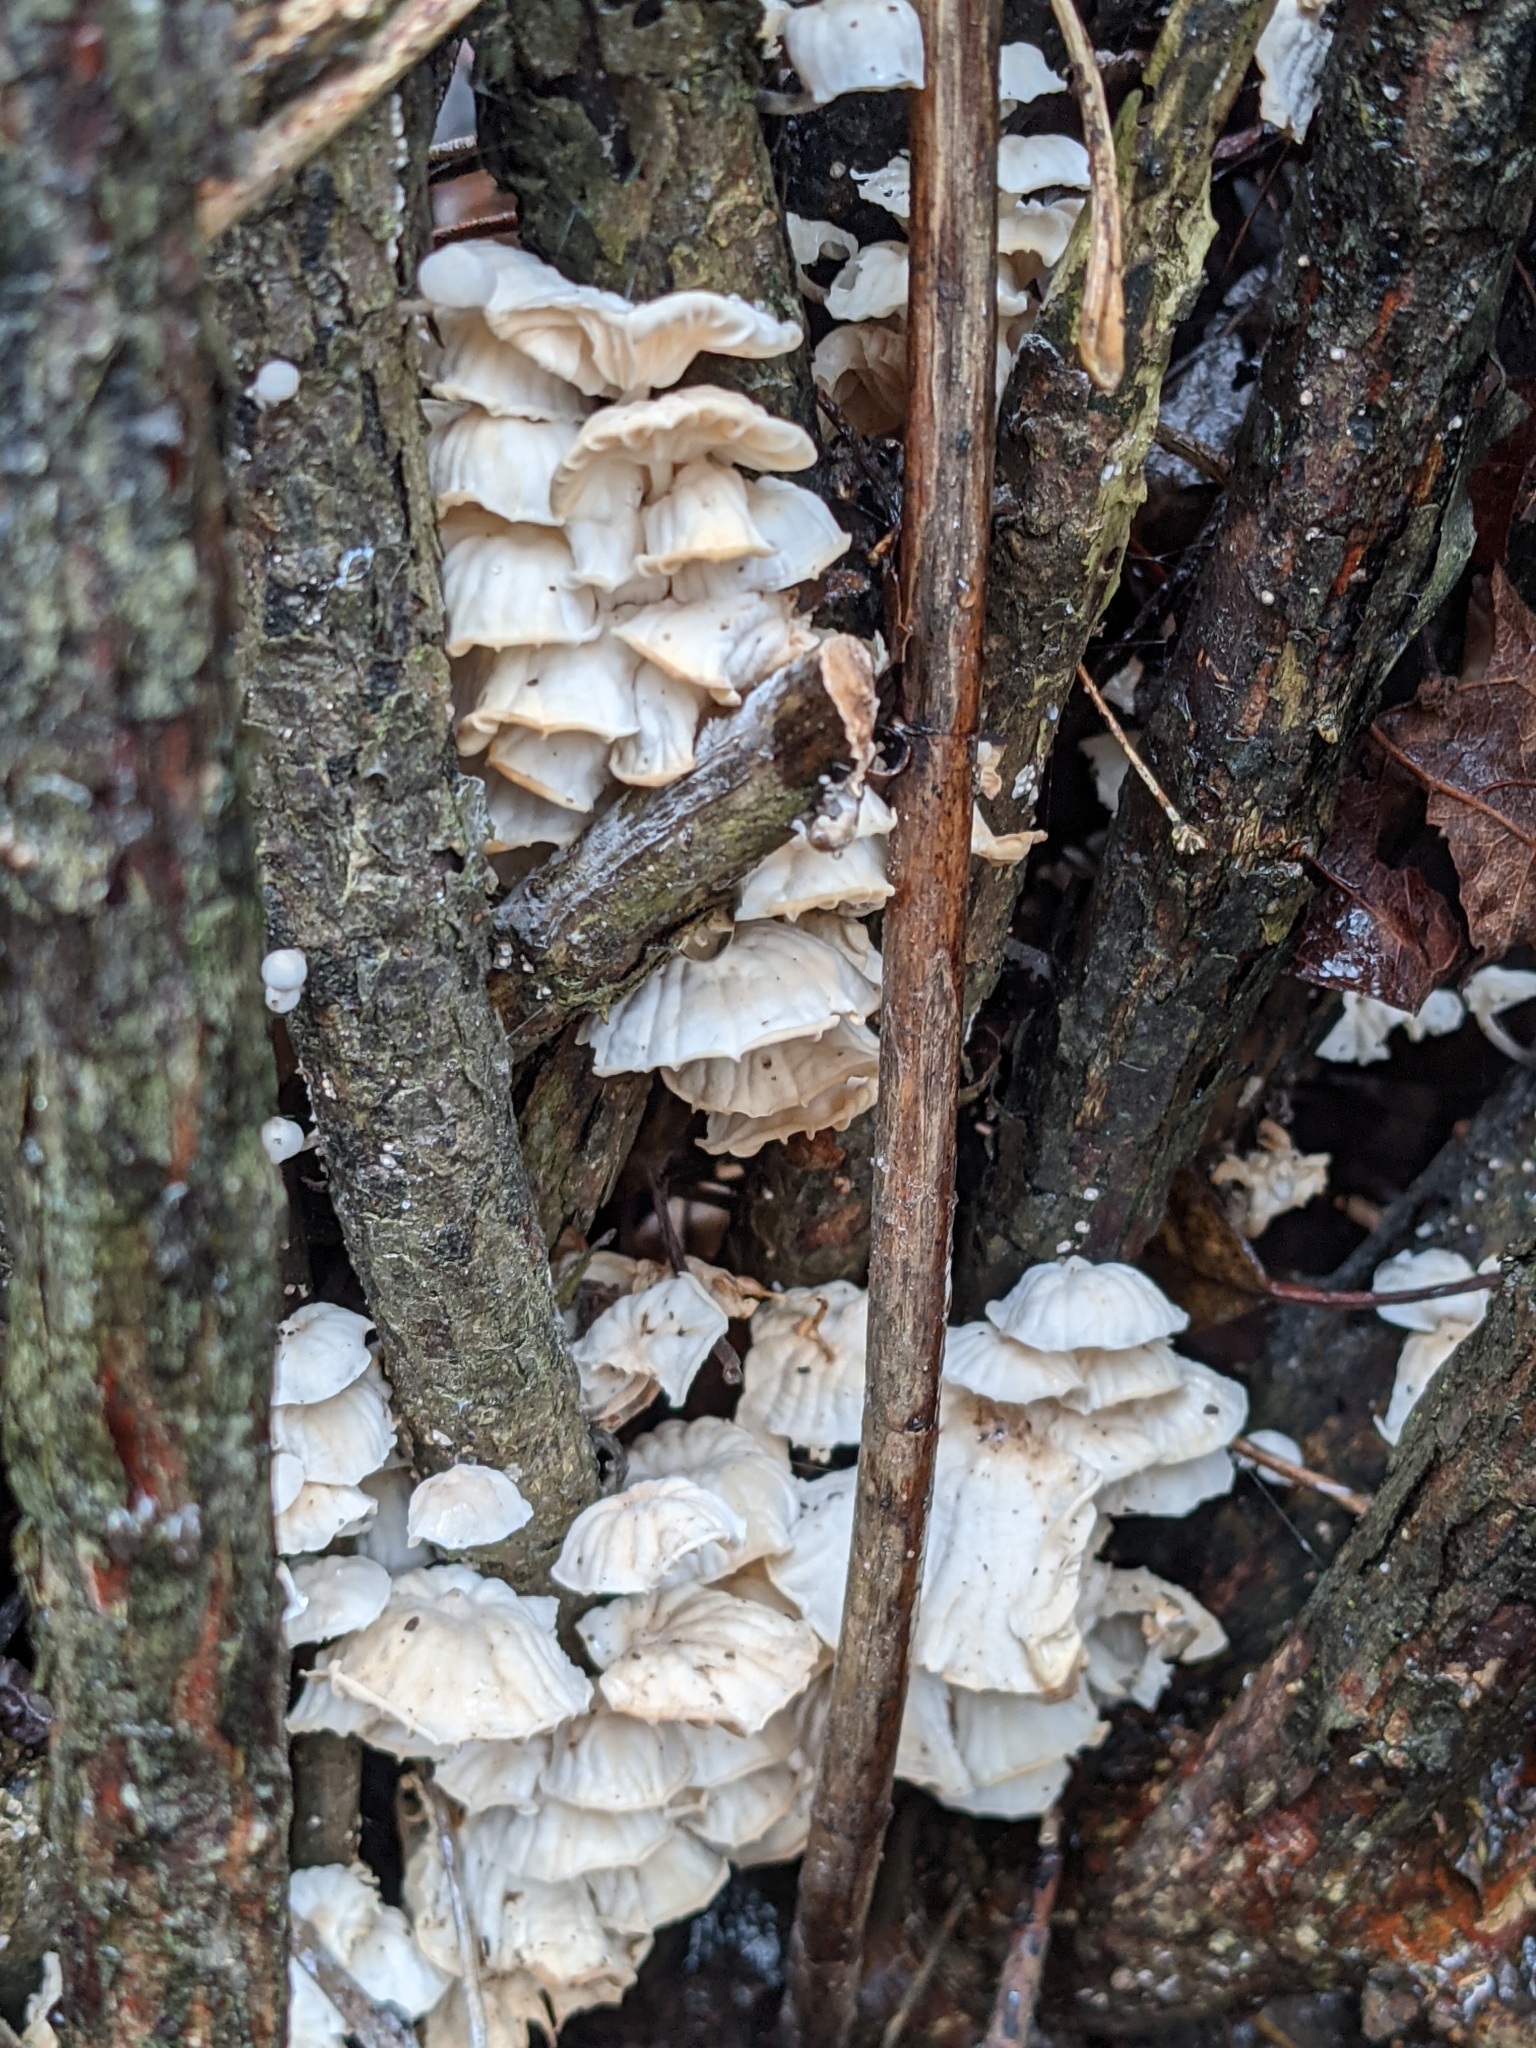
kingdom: Fungi
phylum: Basidiomycota
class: Agaricomycetes
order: Agaricales
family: Omphalotaceae
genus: Marasmiellus
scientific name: Marasmiellus candidus
